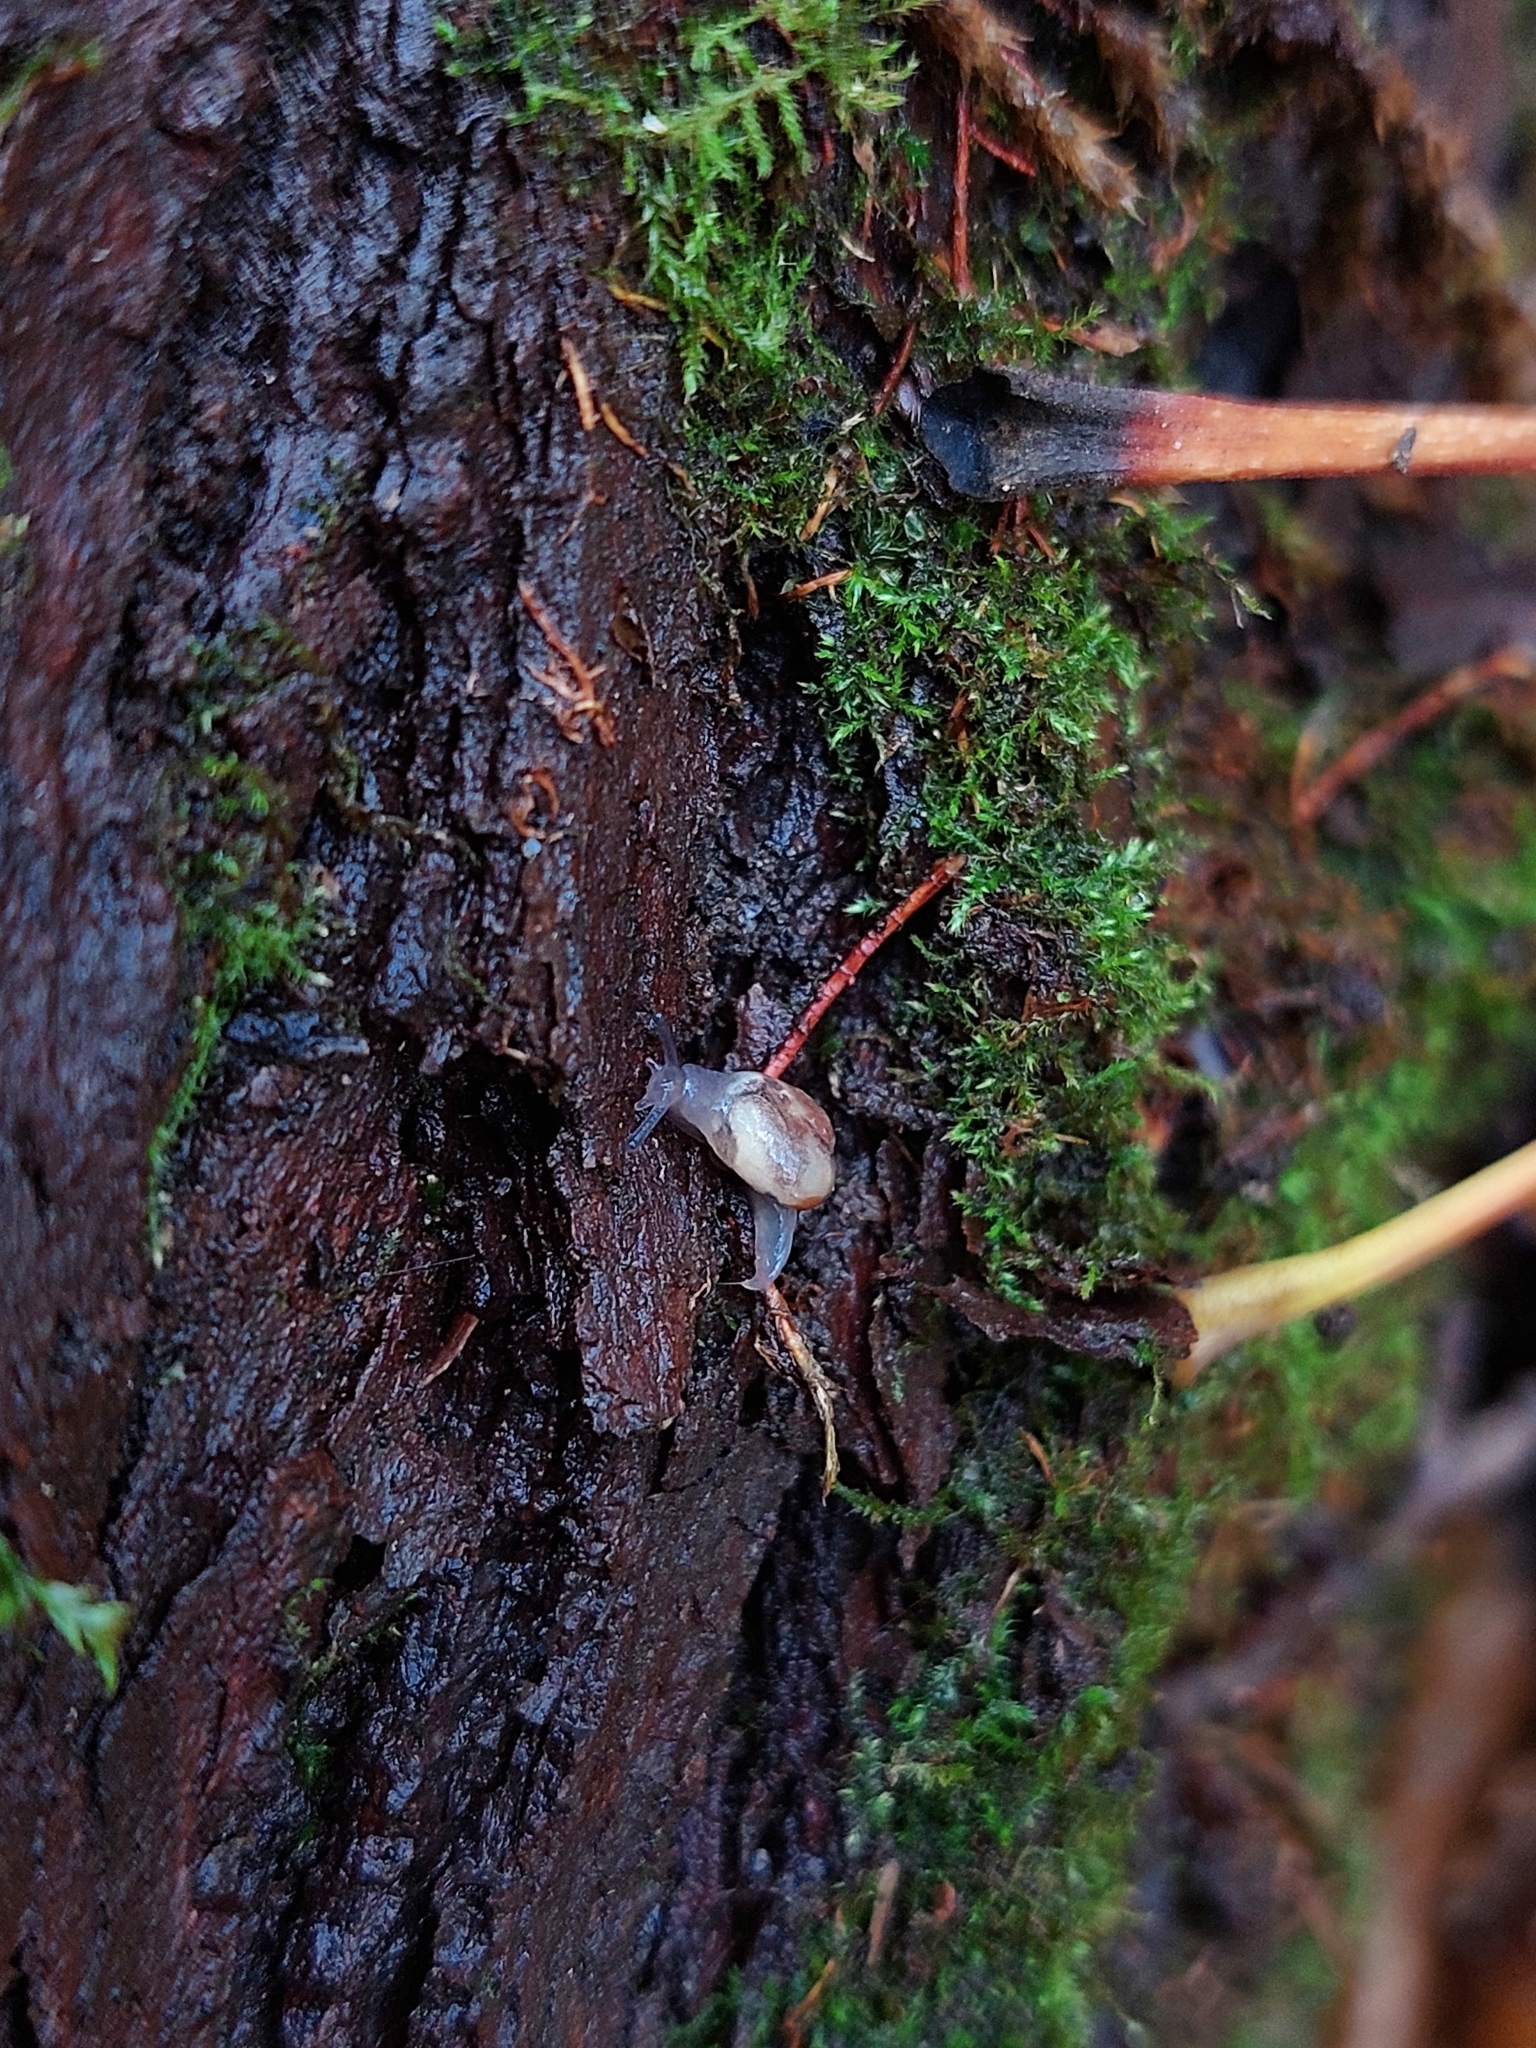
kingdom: Animalia
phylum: Mollusca
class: Gastropoda
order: Stylommatophora
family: Vitrinidae
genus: Vitrina
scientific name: Vitrina pellucida
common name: Pellucid glass snail
